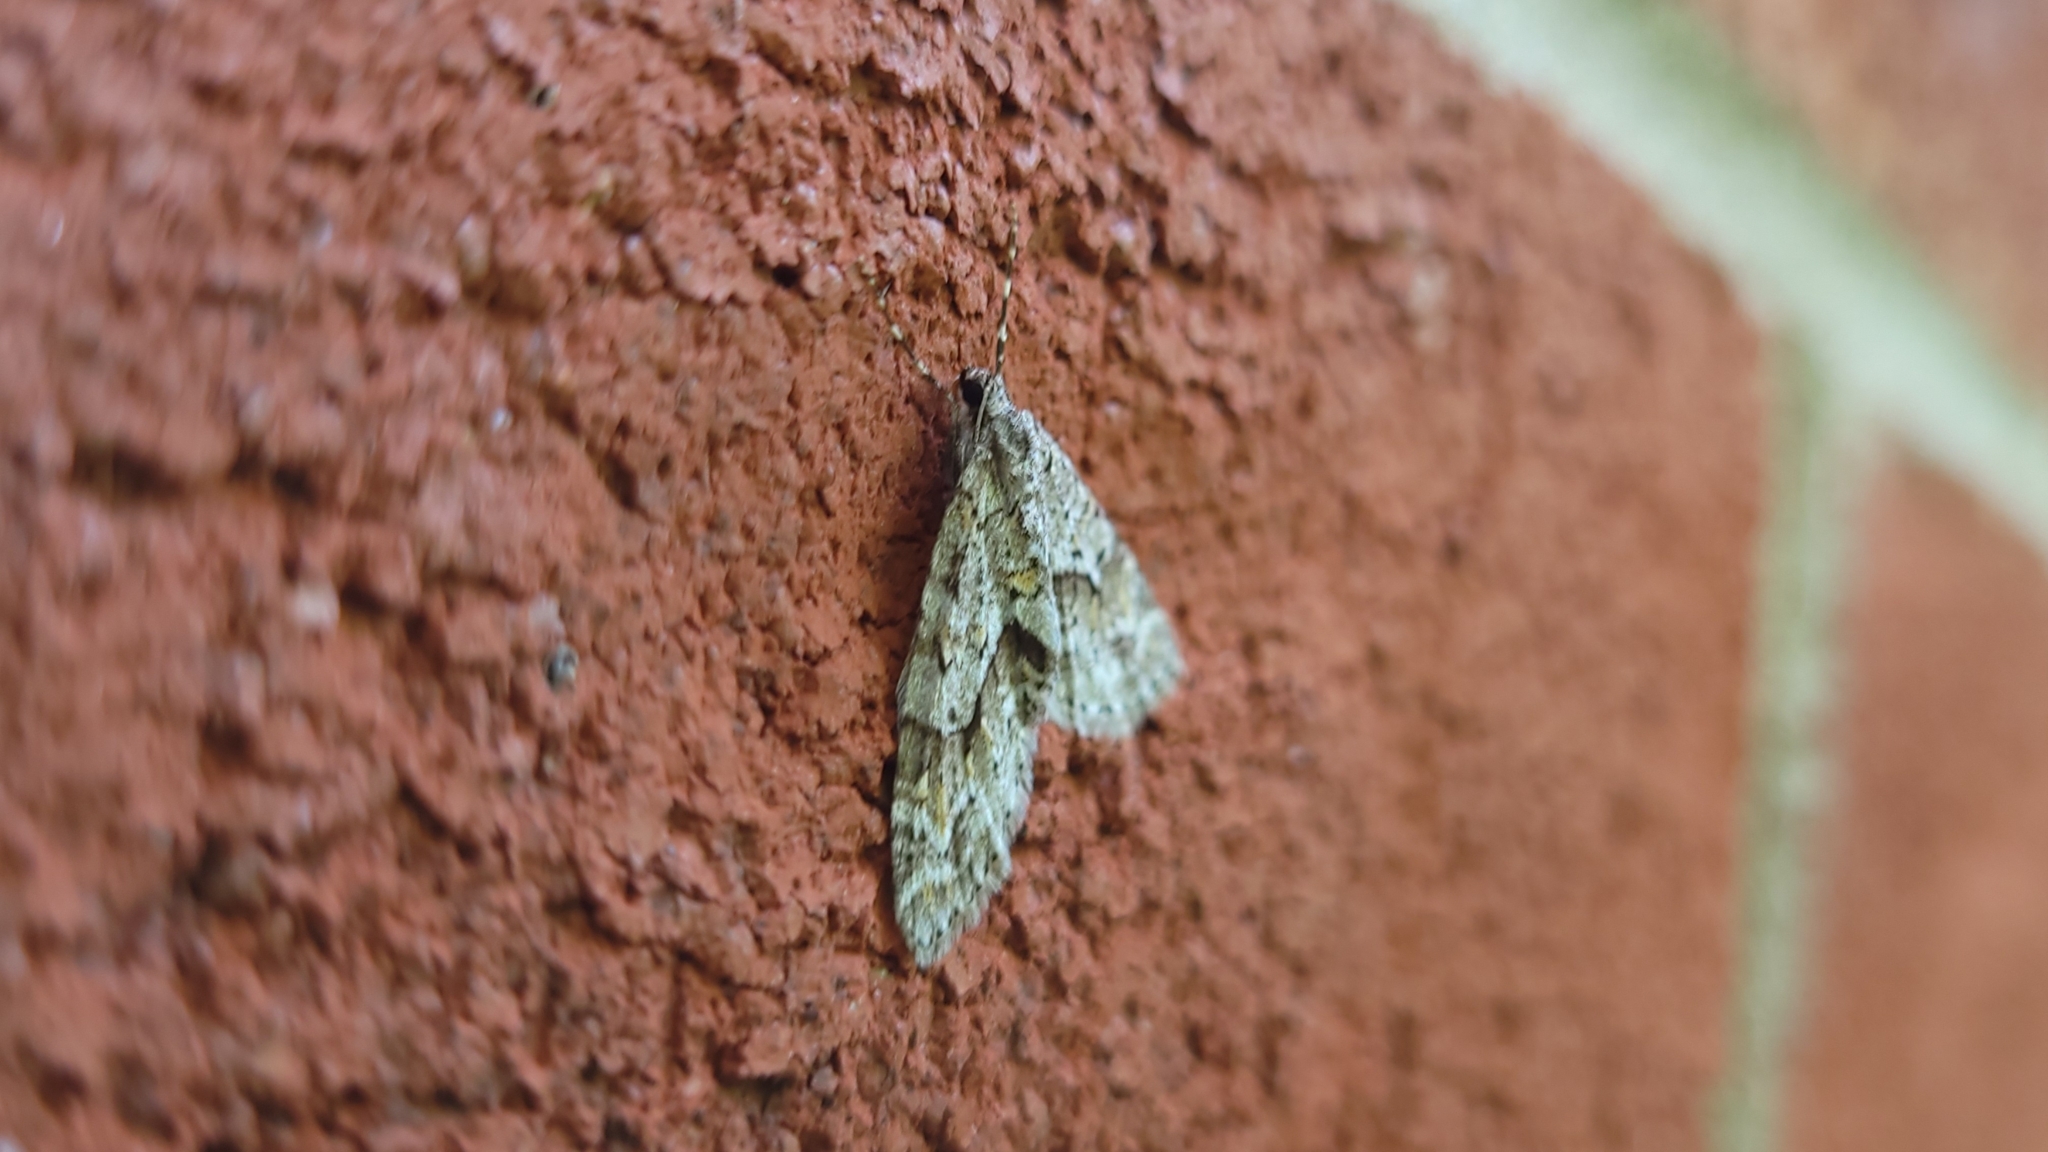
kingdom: Animalia
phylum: Arthropoda
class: Insecta
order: Lepidoptera
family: Geometridae
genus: Cladara
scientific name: Cladara limitaria
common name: Mottled gray carpet
